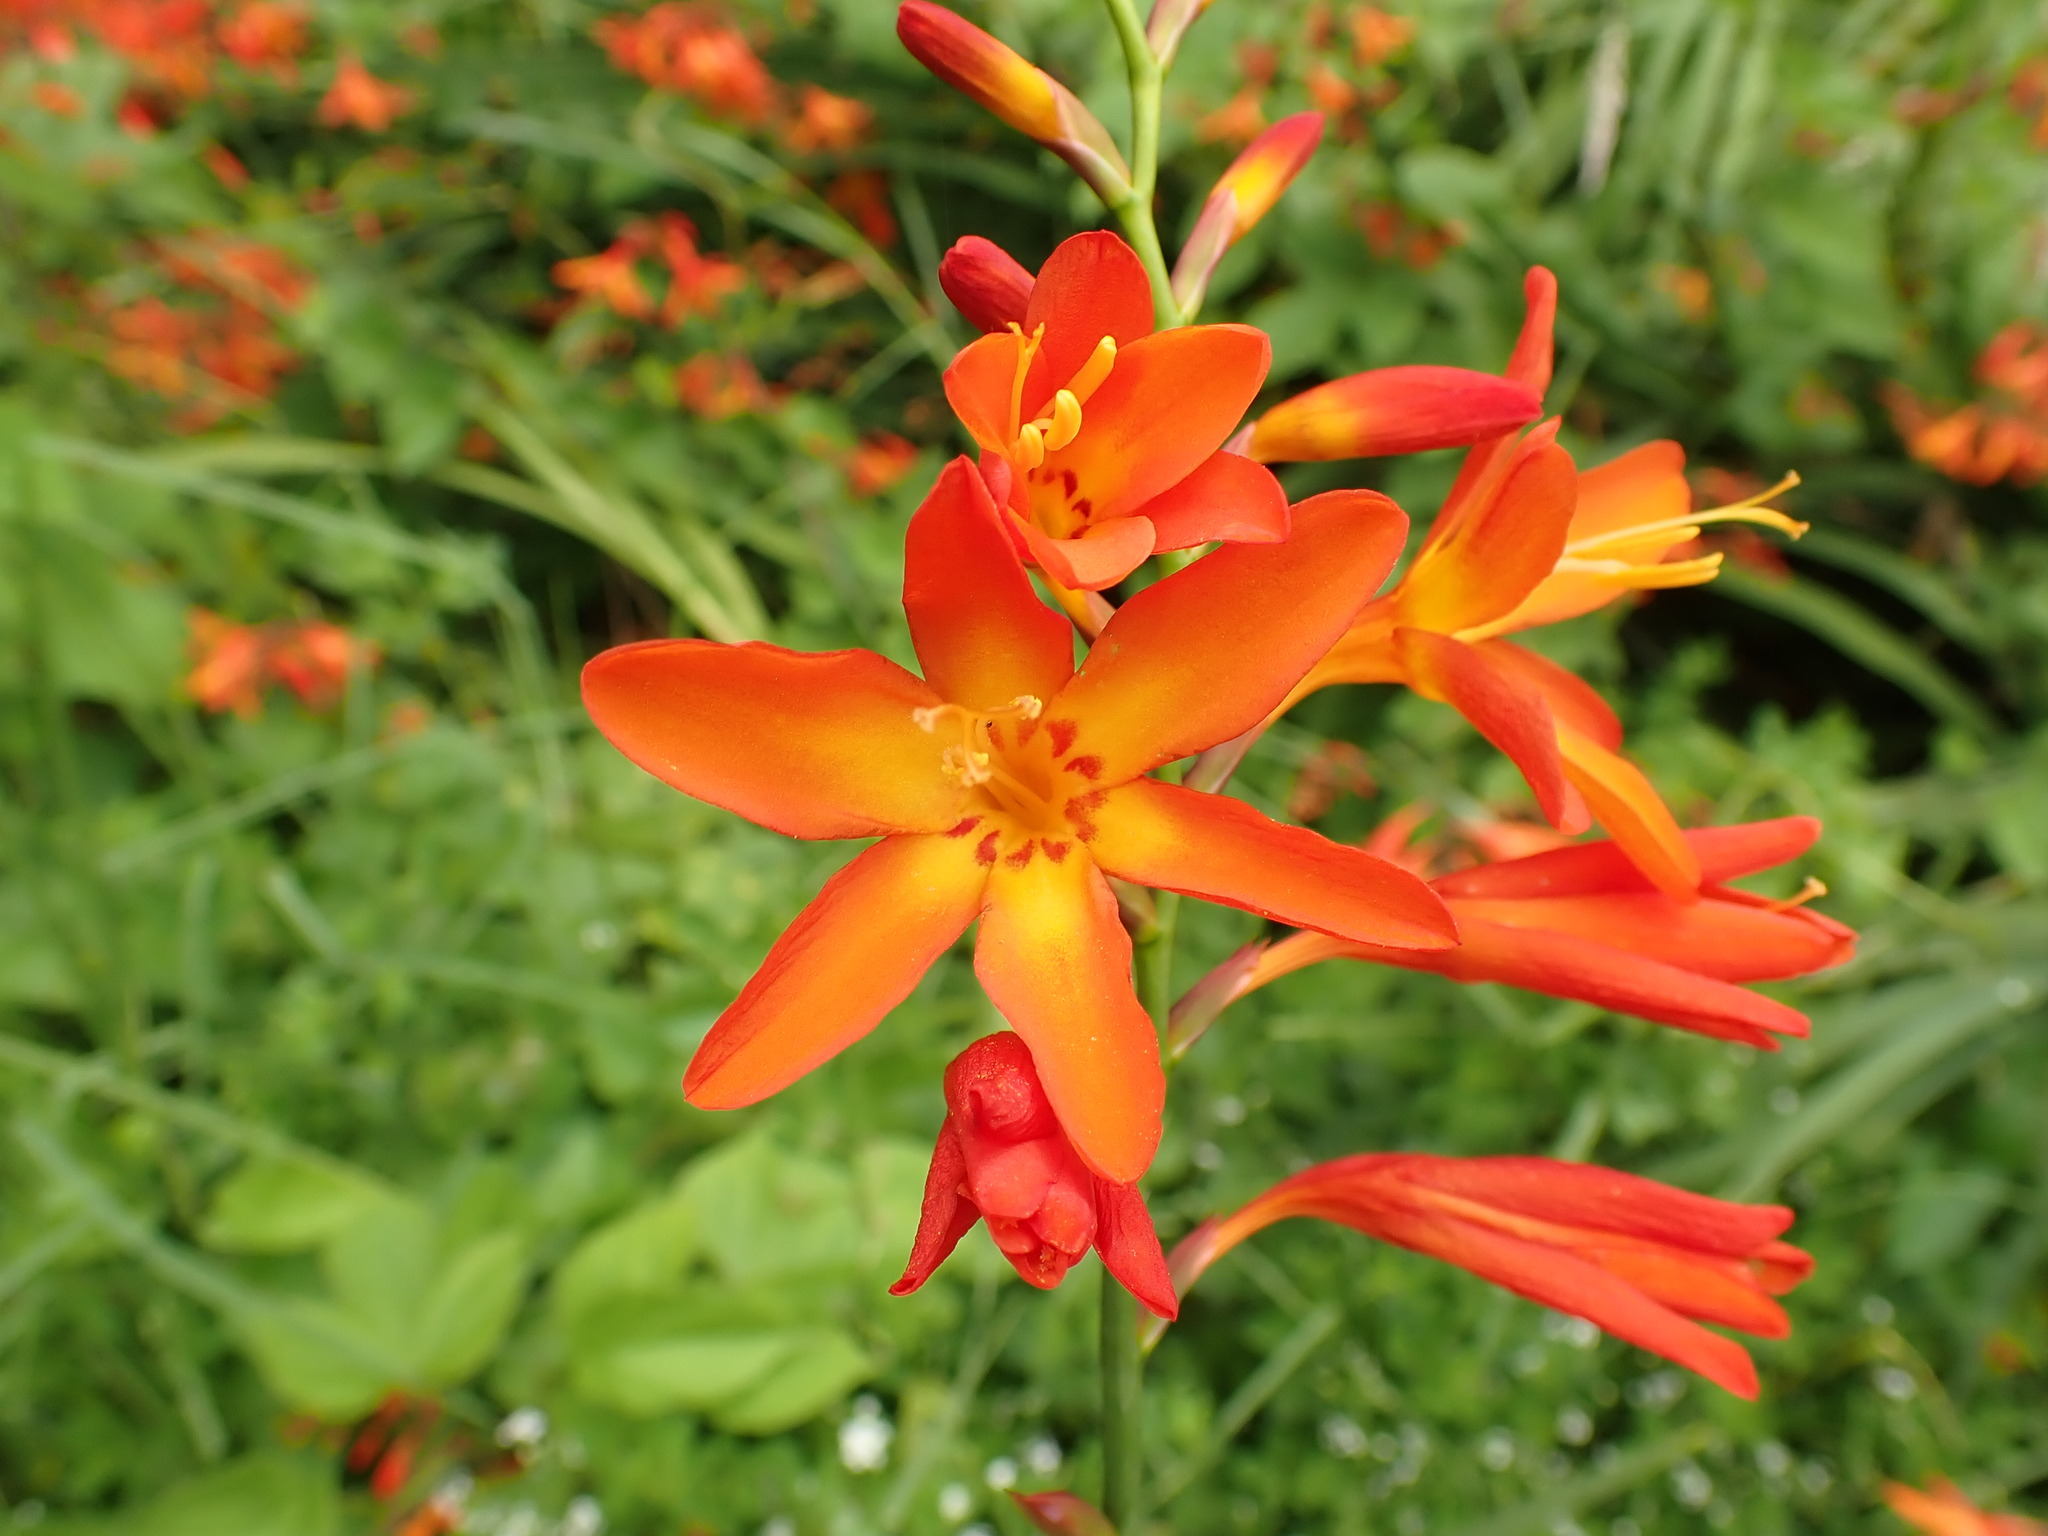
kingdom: Plantae
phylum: Tracheophyta
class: Liliopsida
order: Asparagales
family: Iridaceae
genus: Crocosmia
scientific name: Crocosmia crocosmiiflora
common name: Montbretia
